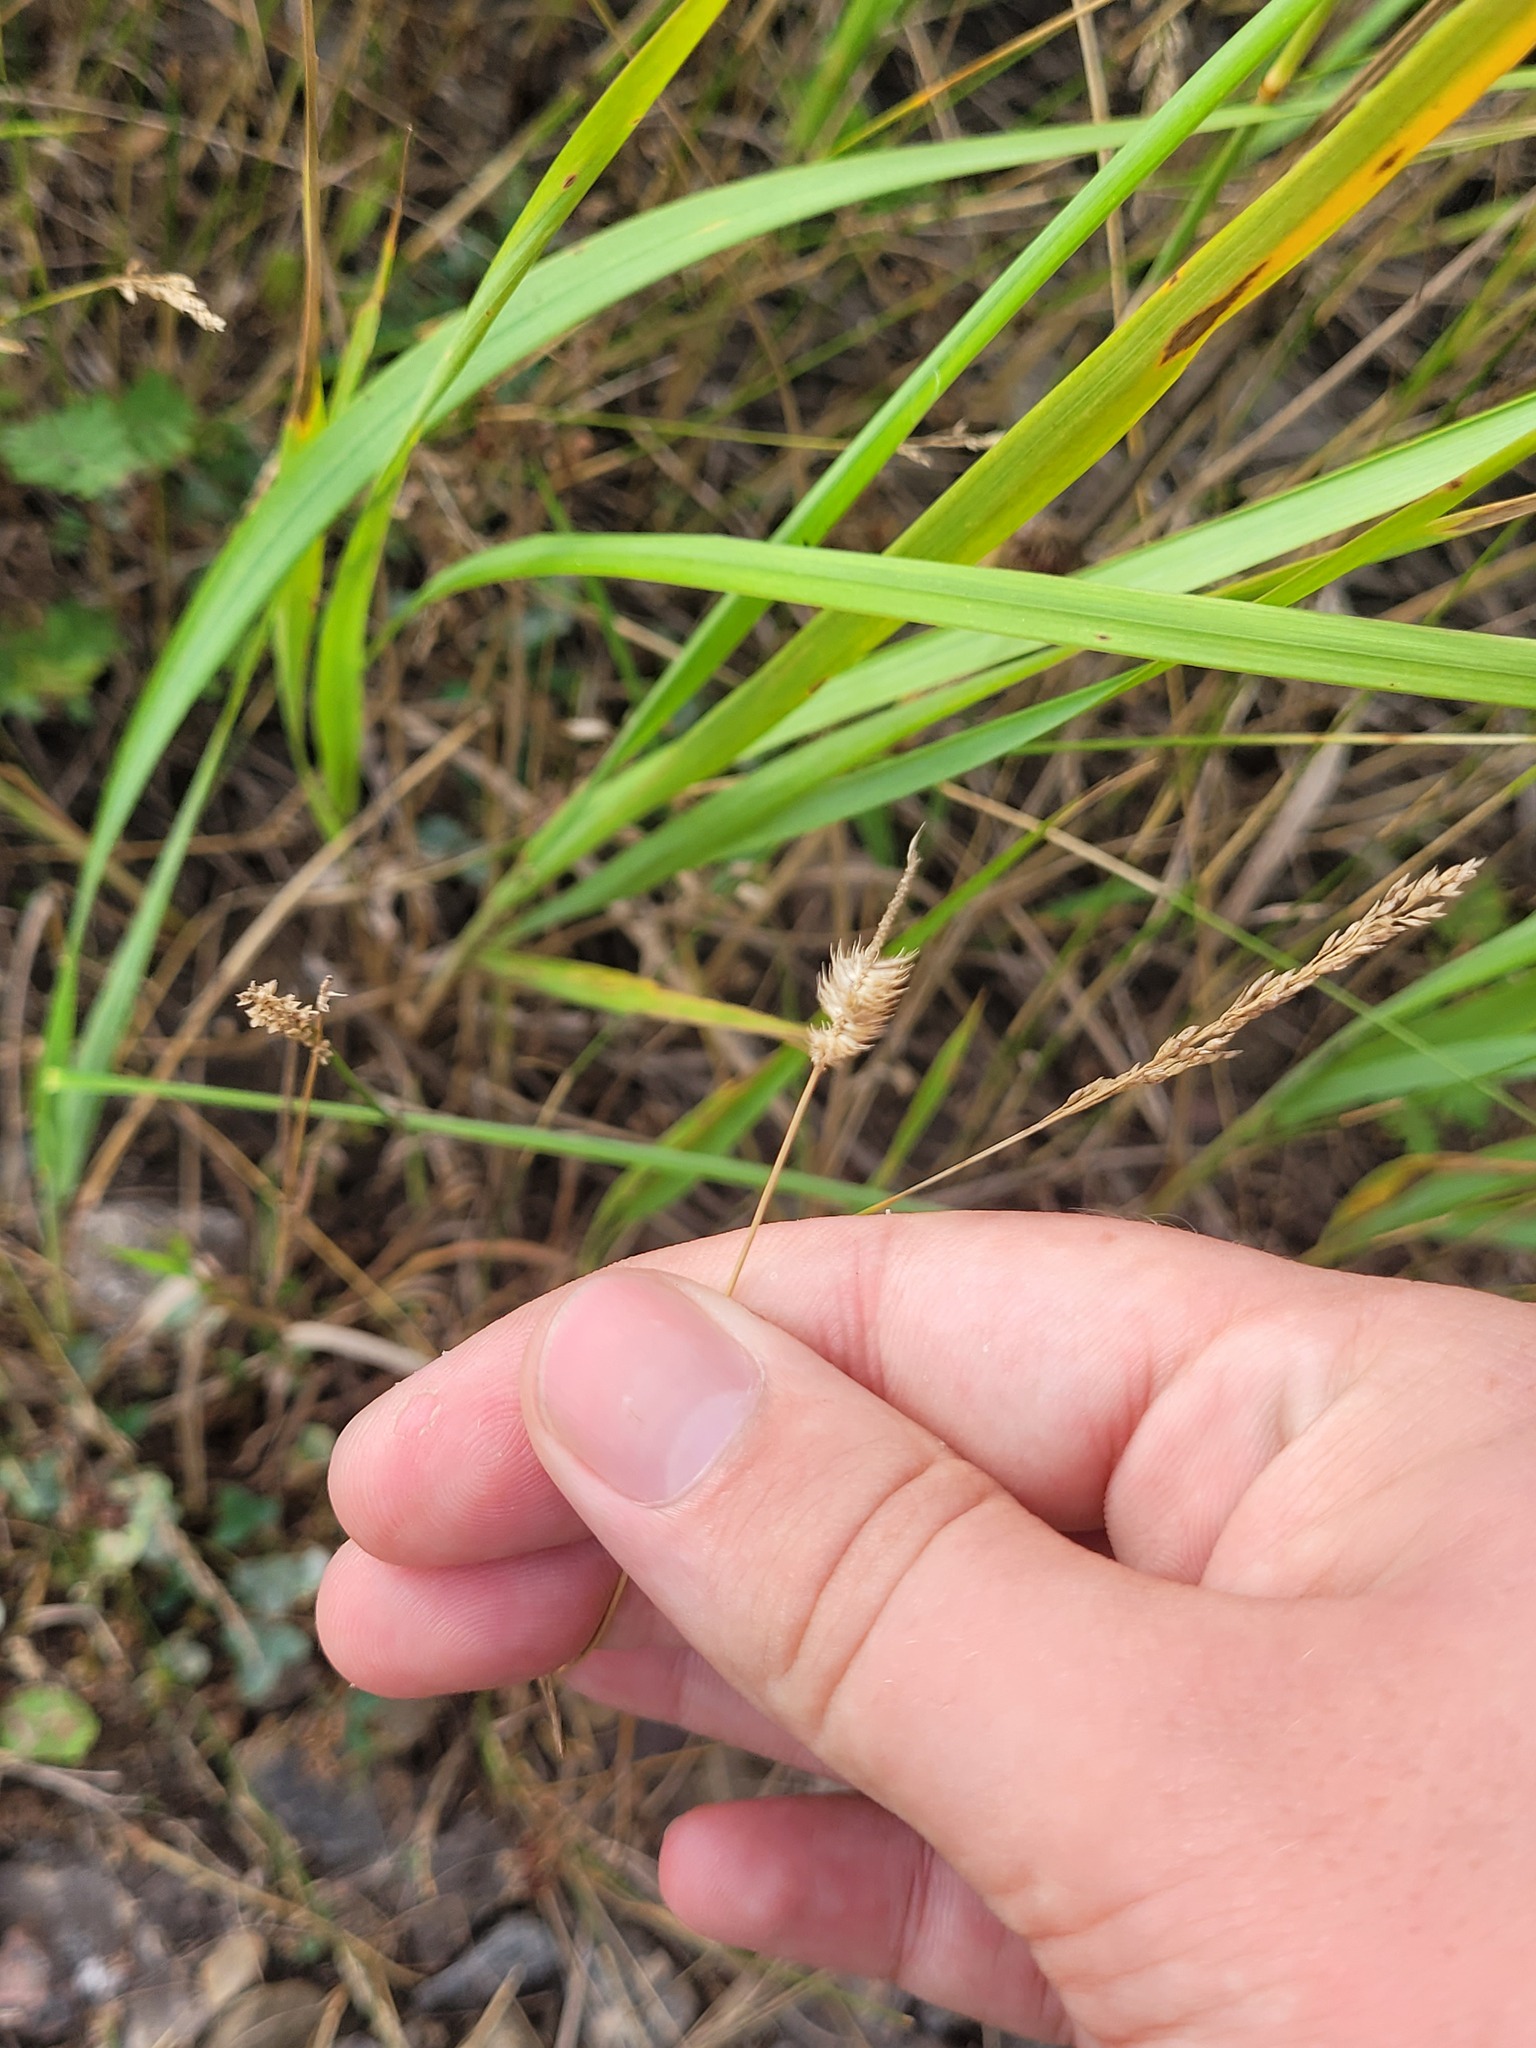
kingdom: Plantae
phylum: Tracheophyta
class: Liliopsida
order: Poales
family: Poaceae
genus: Phleum
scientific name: Phleum pratense
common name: Timothy grass
